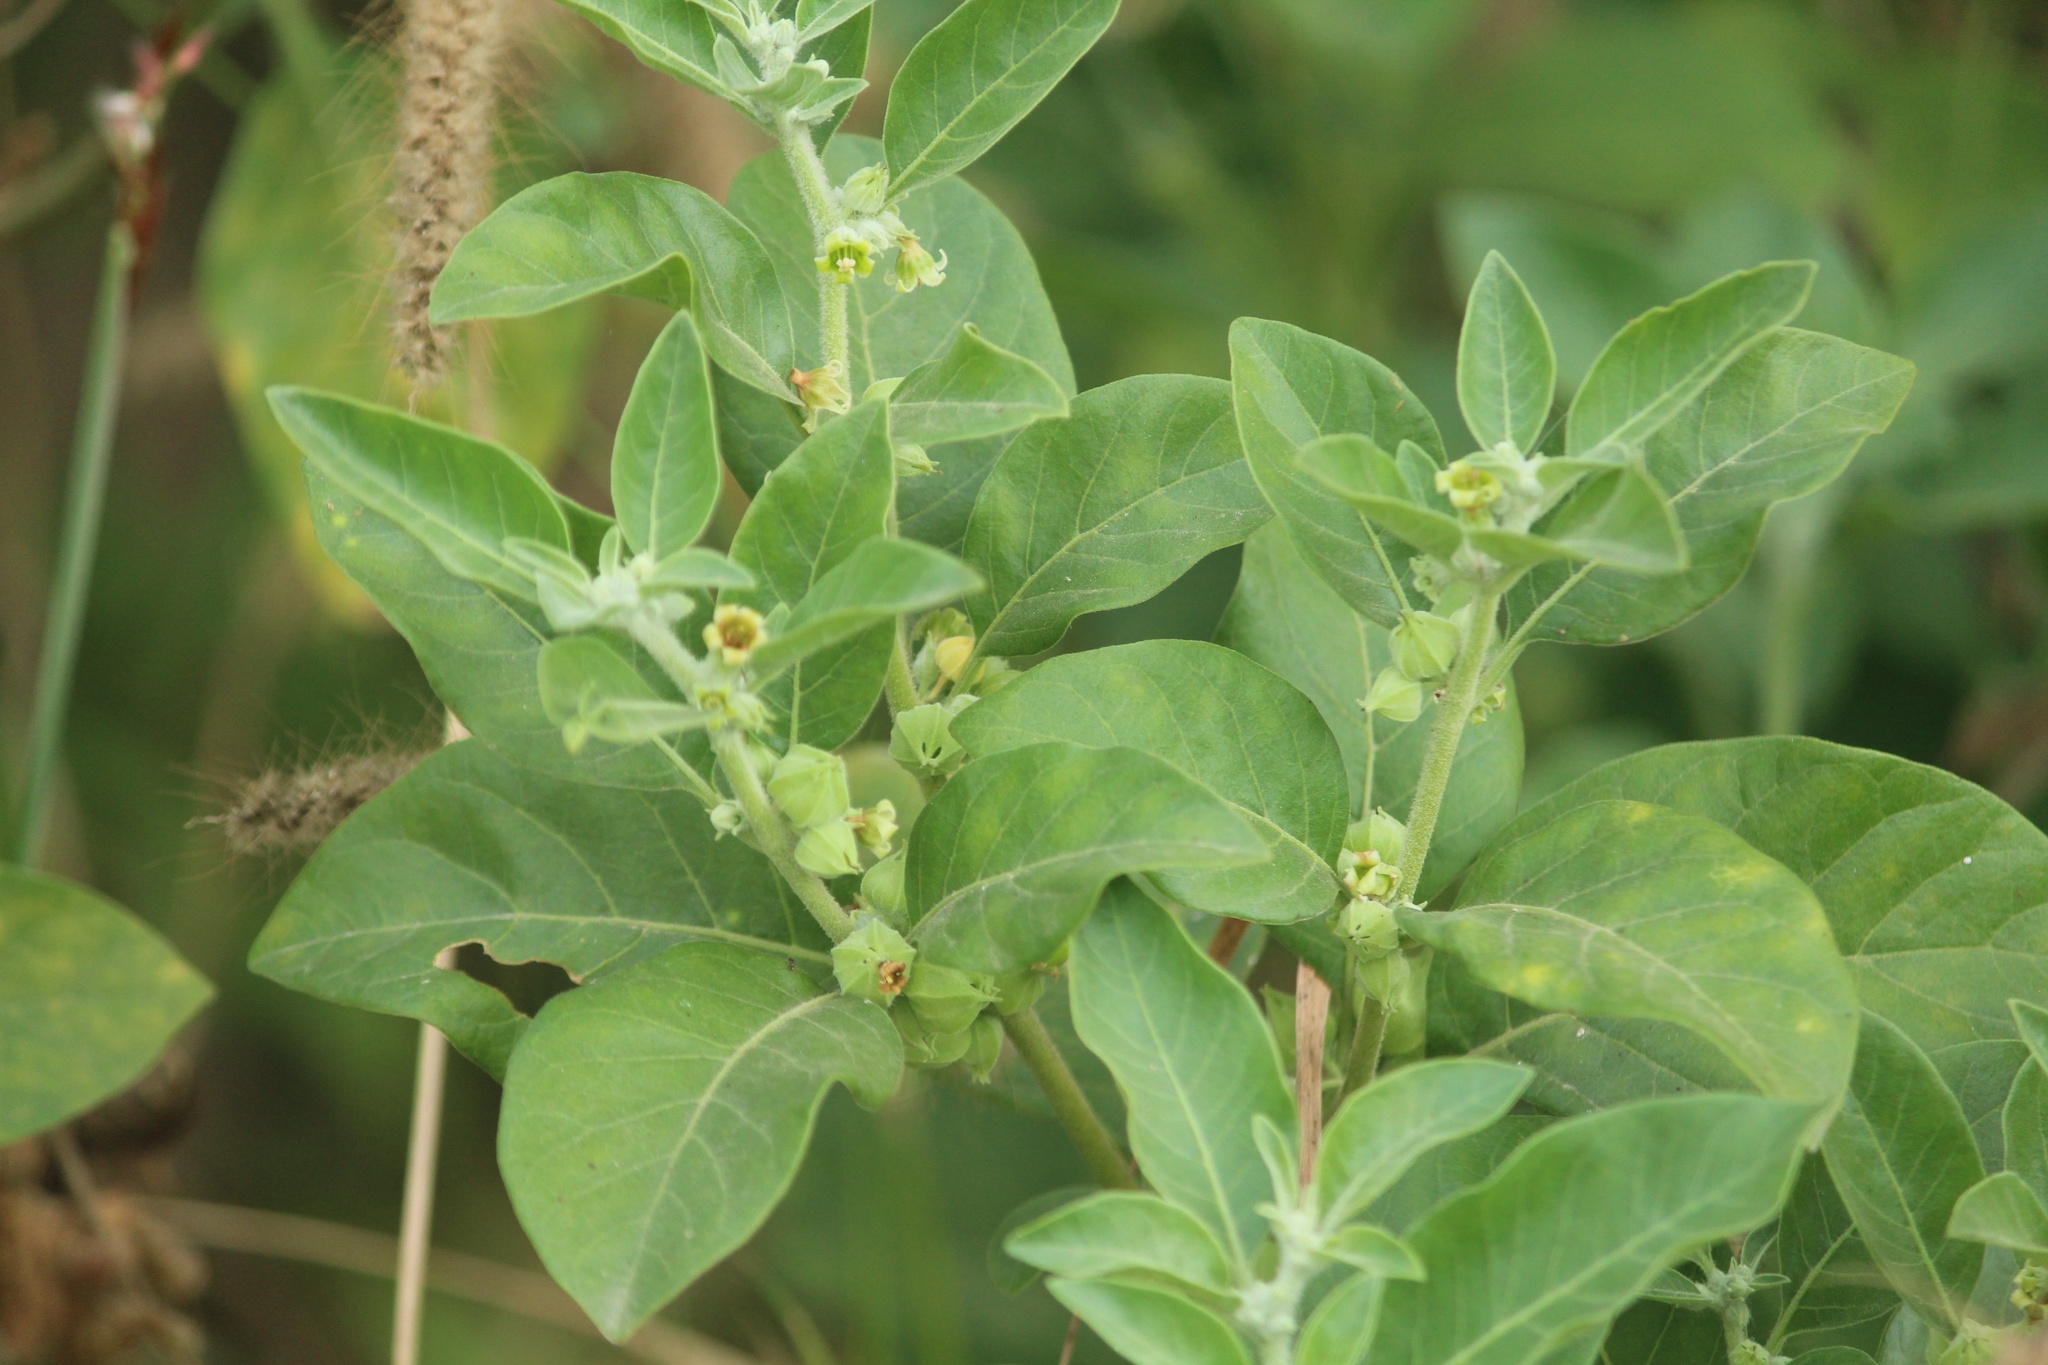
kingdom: Plantae
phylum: Tracheophyta
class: Magnoliopsida
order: Solanales
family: Solanaceae
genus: Withania
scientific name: Withania somnifera
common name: Winter-cherry
